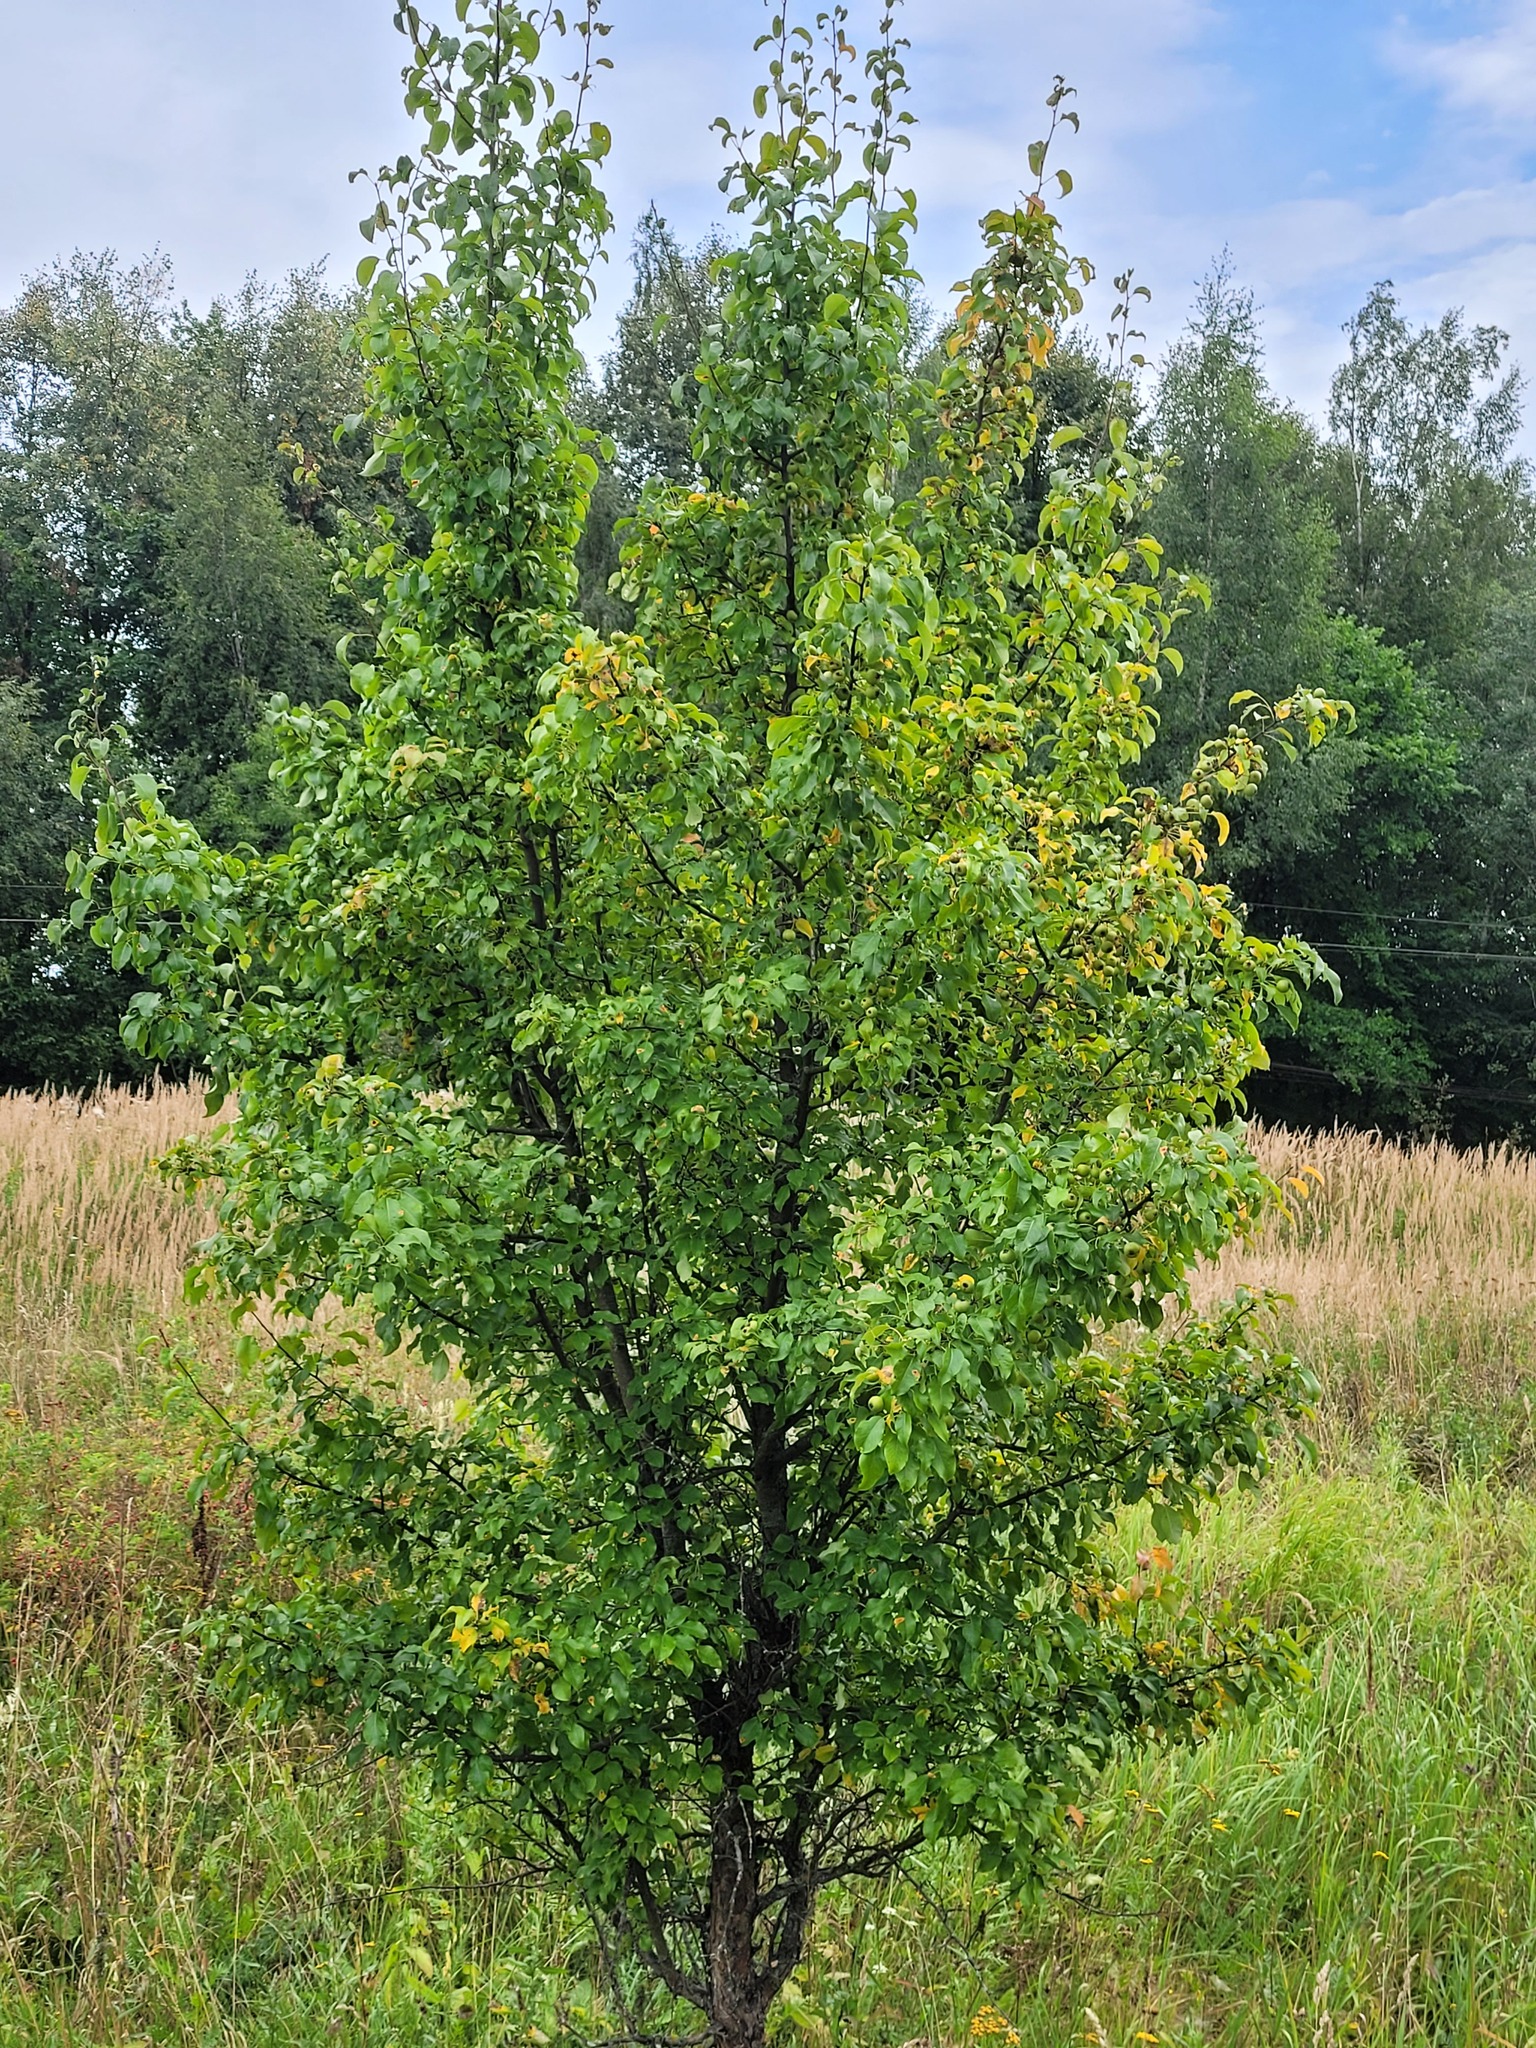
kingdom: Plantae
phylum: Tracheophyta
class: Magnoliopsida
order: Rosales
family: Rosaceae
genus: Pyrus
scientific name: Pyrus communis
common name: Pear
